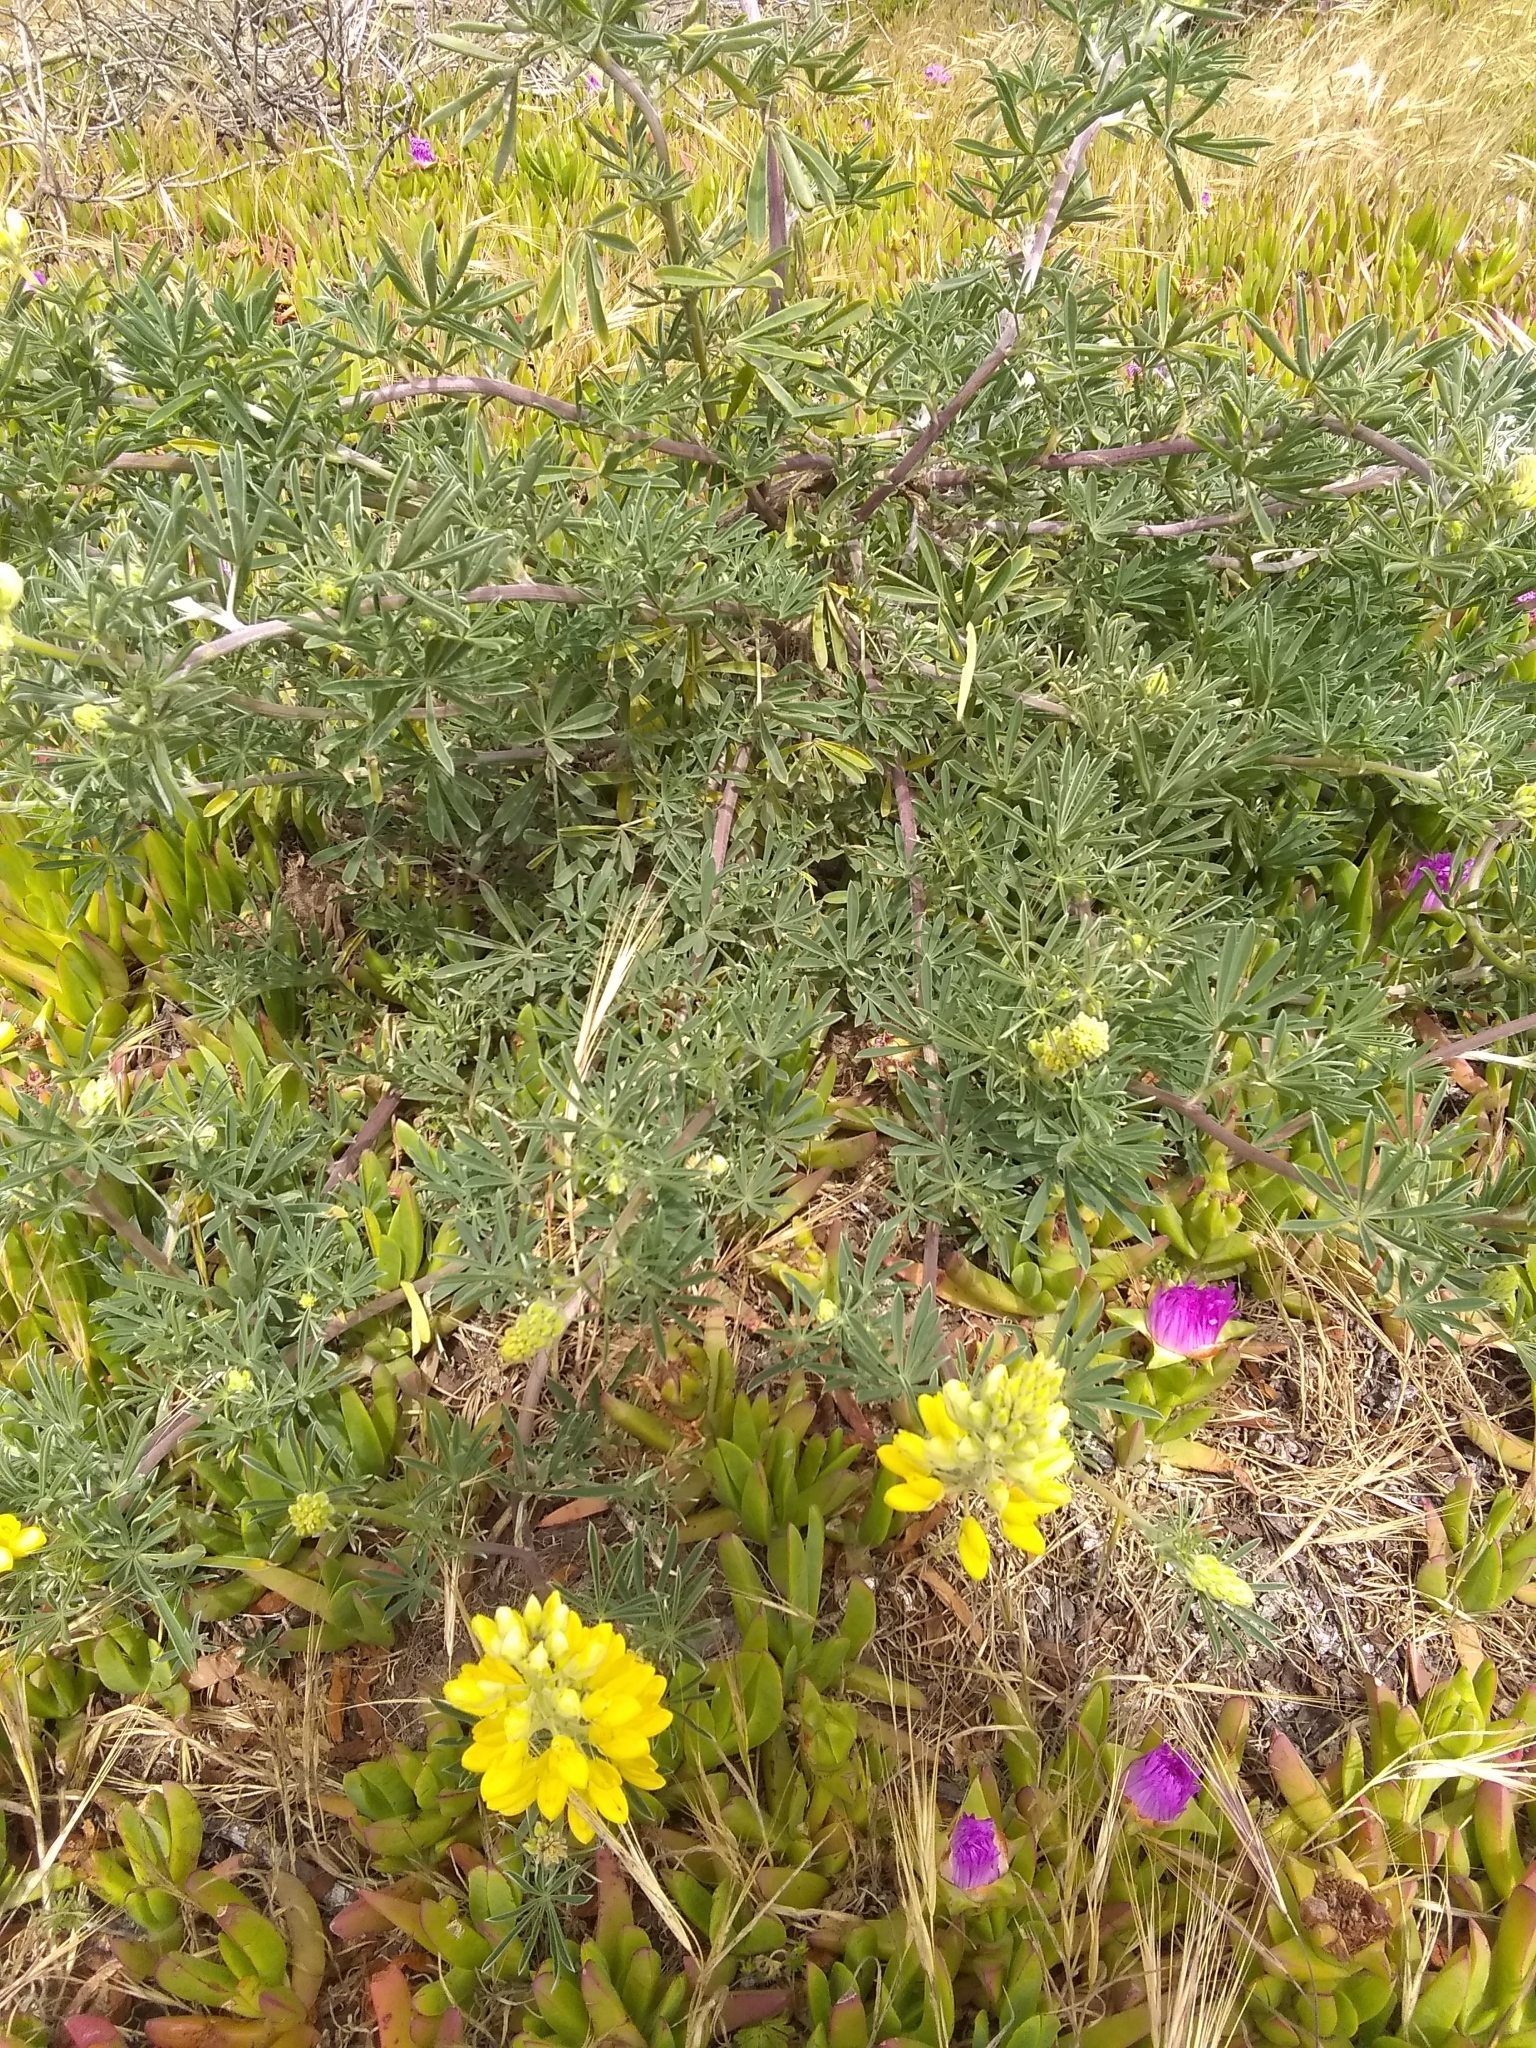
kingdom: Plantae
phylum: Tracheophyta
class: Magnoliopsida
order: Fabales
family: Fabaceae
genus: Lupinus
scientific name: Lupinus arboreus
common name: Yellow bush lupine
